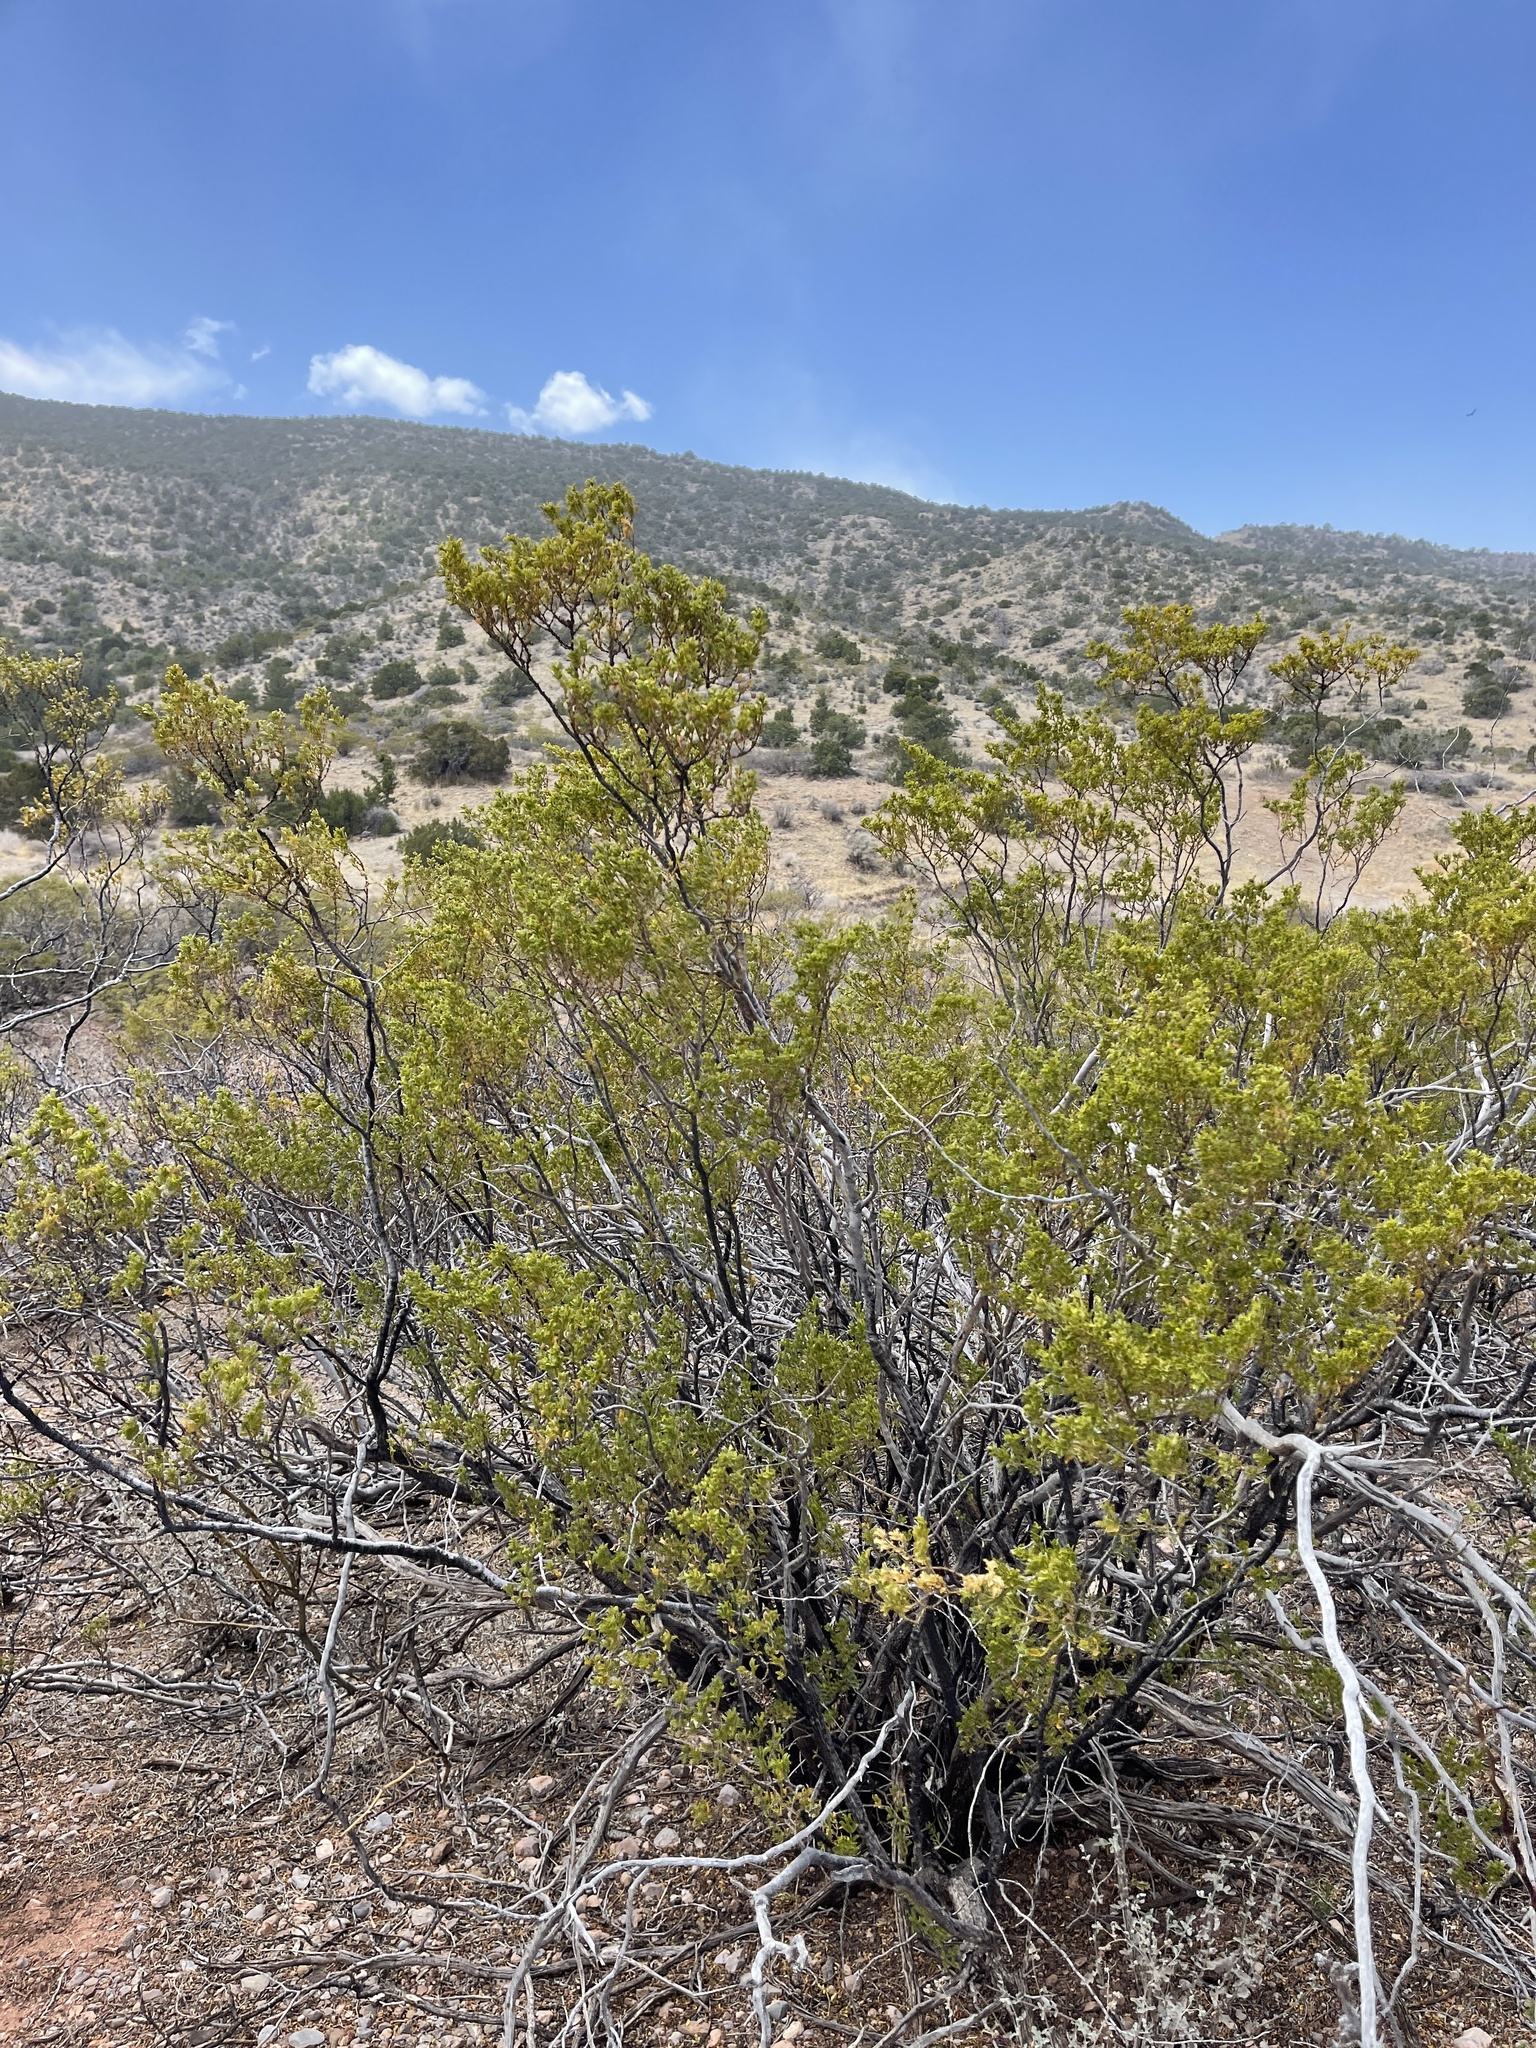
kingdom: Plantae
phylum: Tracheophyta
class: Magnoliopsida
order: Zygophyllales
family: Zygophyllaceae
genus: Larrea
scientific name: Larrea tridentata
